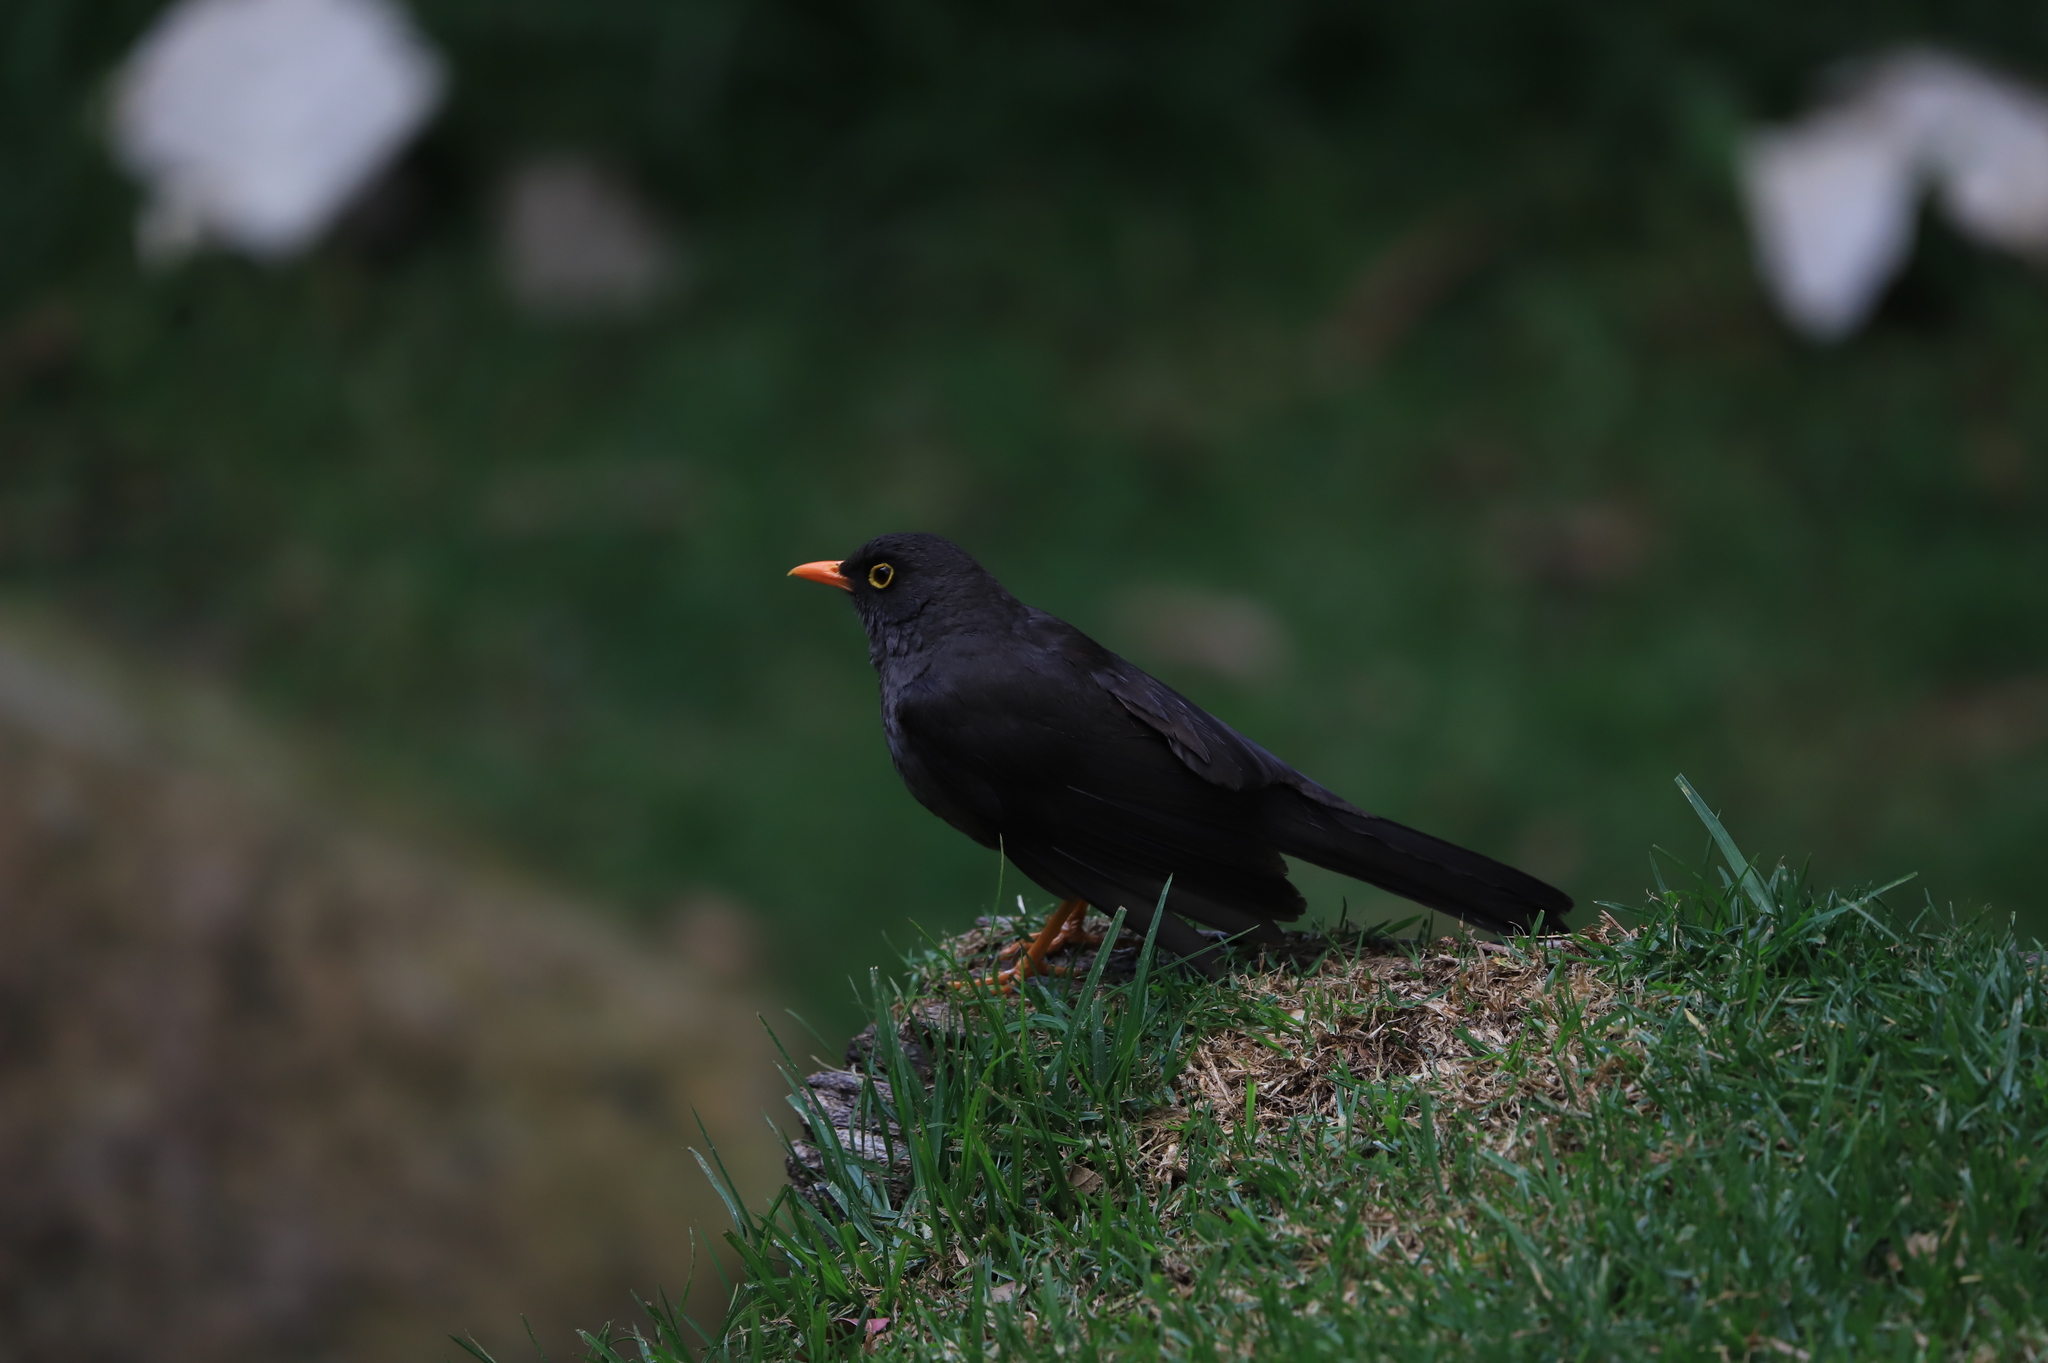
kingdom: Animalia
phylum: Chordata
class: Aves
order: Passeriformes
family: Turdidae
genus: Turdus
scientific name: Turdus fuscater
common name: Great thrush
